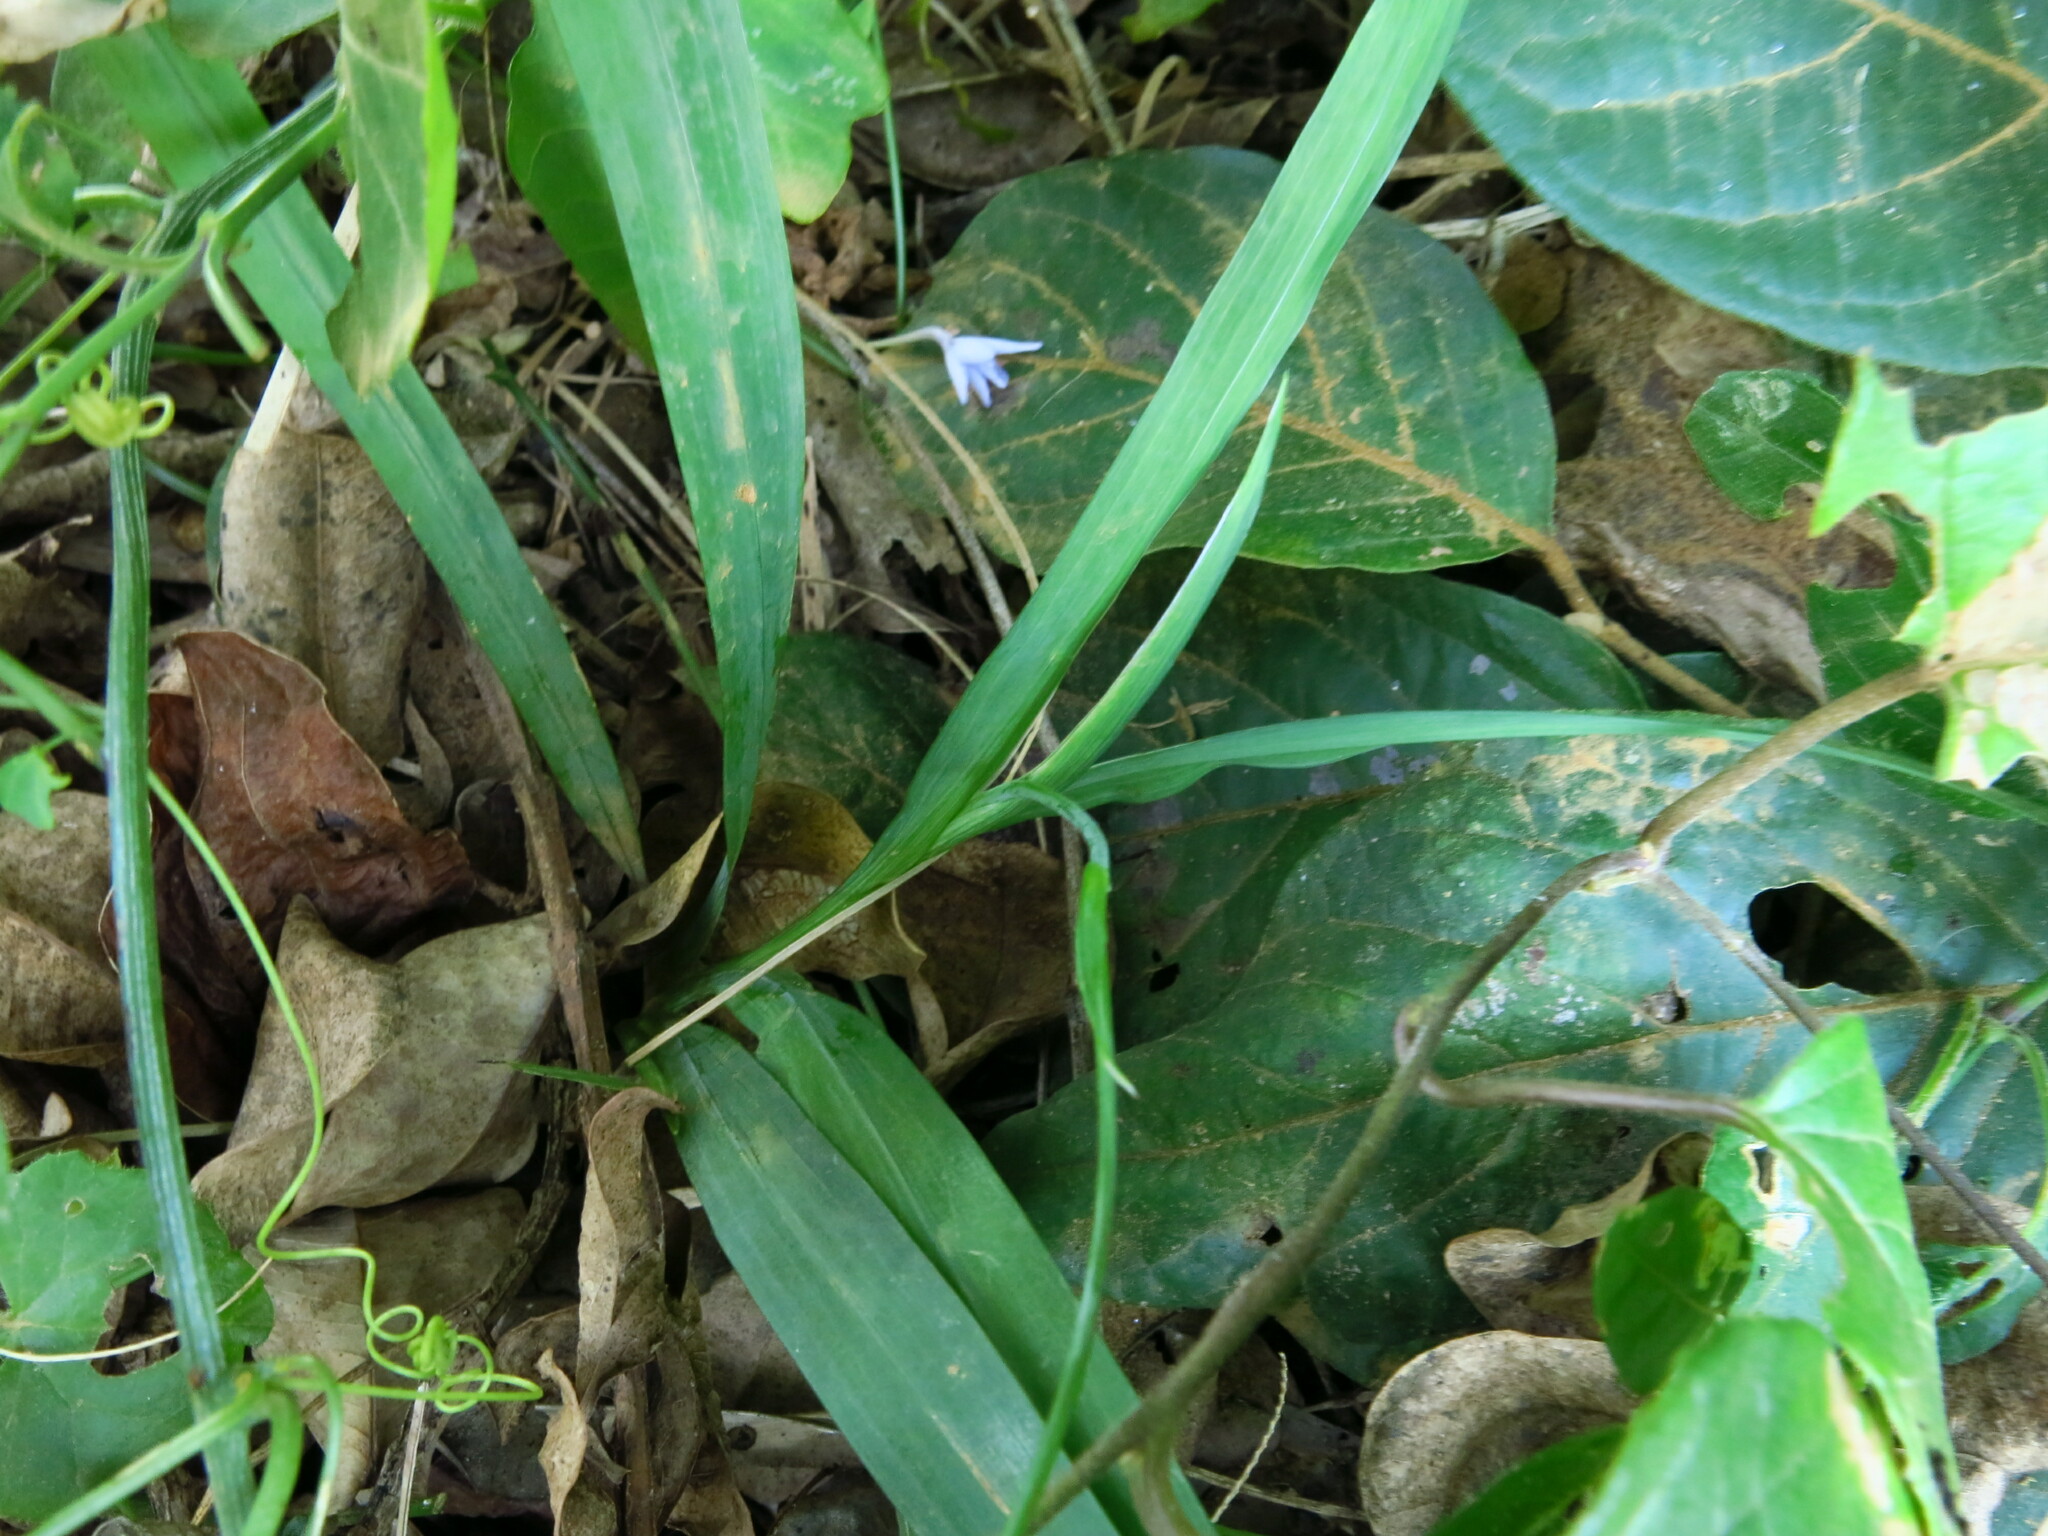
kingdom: Plantae
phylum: Tracheophyta
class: Liliopsida
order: Asparagales
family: Iridaceae
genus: Freesia
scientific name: Freesia laxa
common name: False freesia
